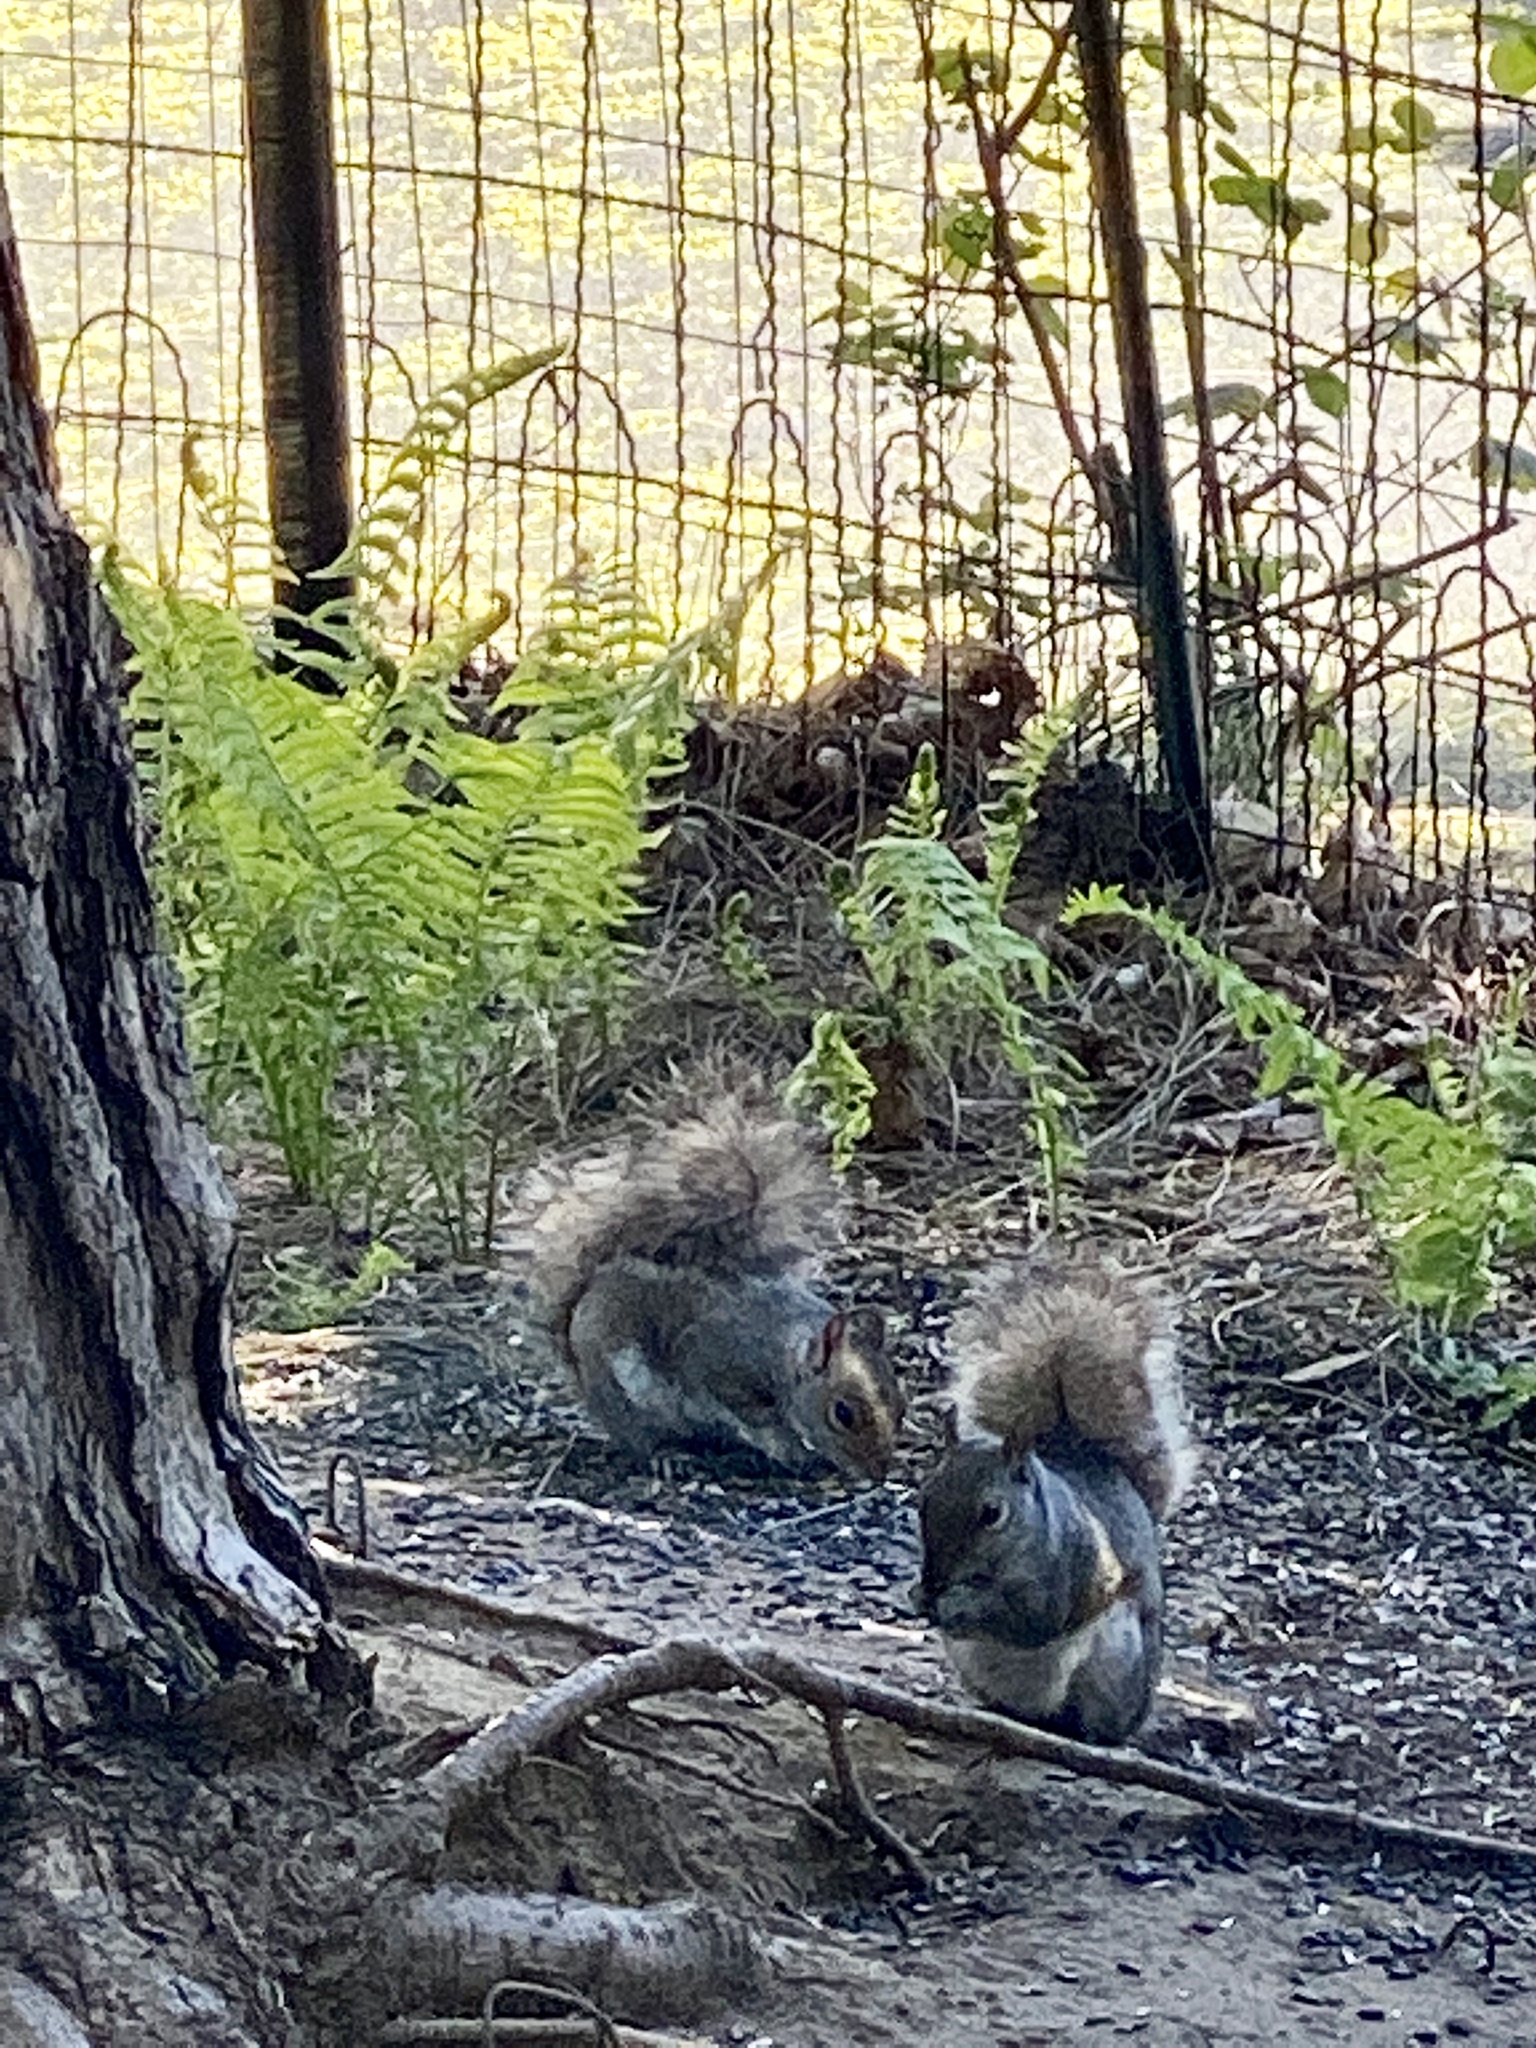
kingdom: Animalia
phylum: Chordata
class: Mammalia
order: Rodentia
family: Sciuridae
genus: Sciurus
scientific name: Sciurus carolinensis
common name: Eastern gray squirrel
